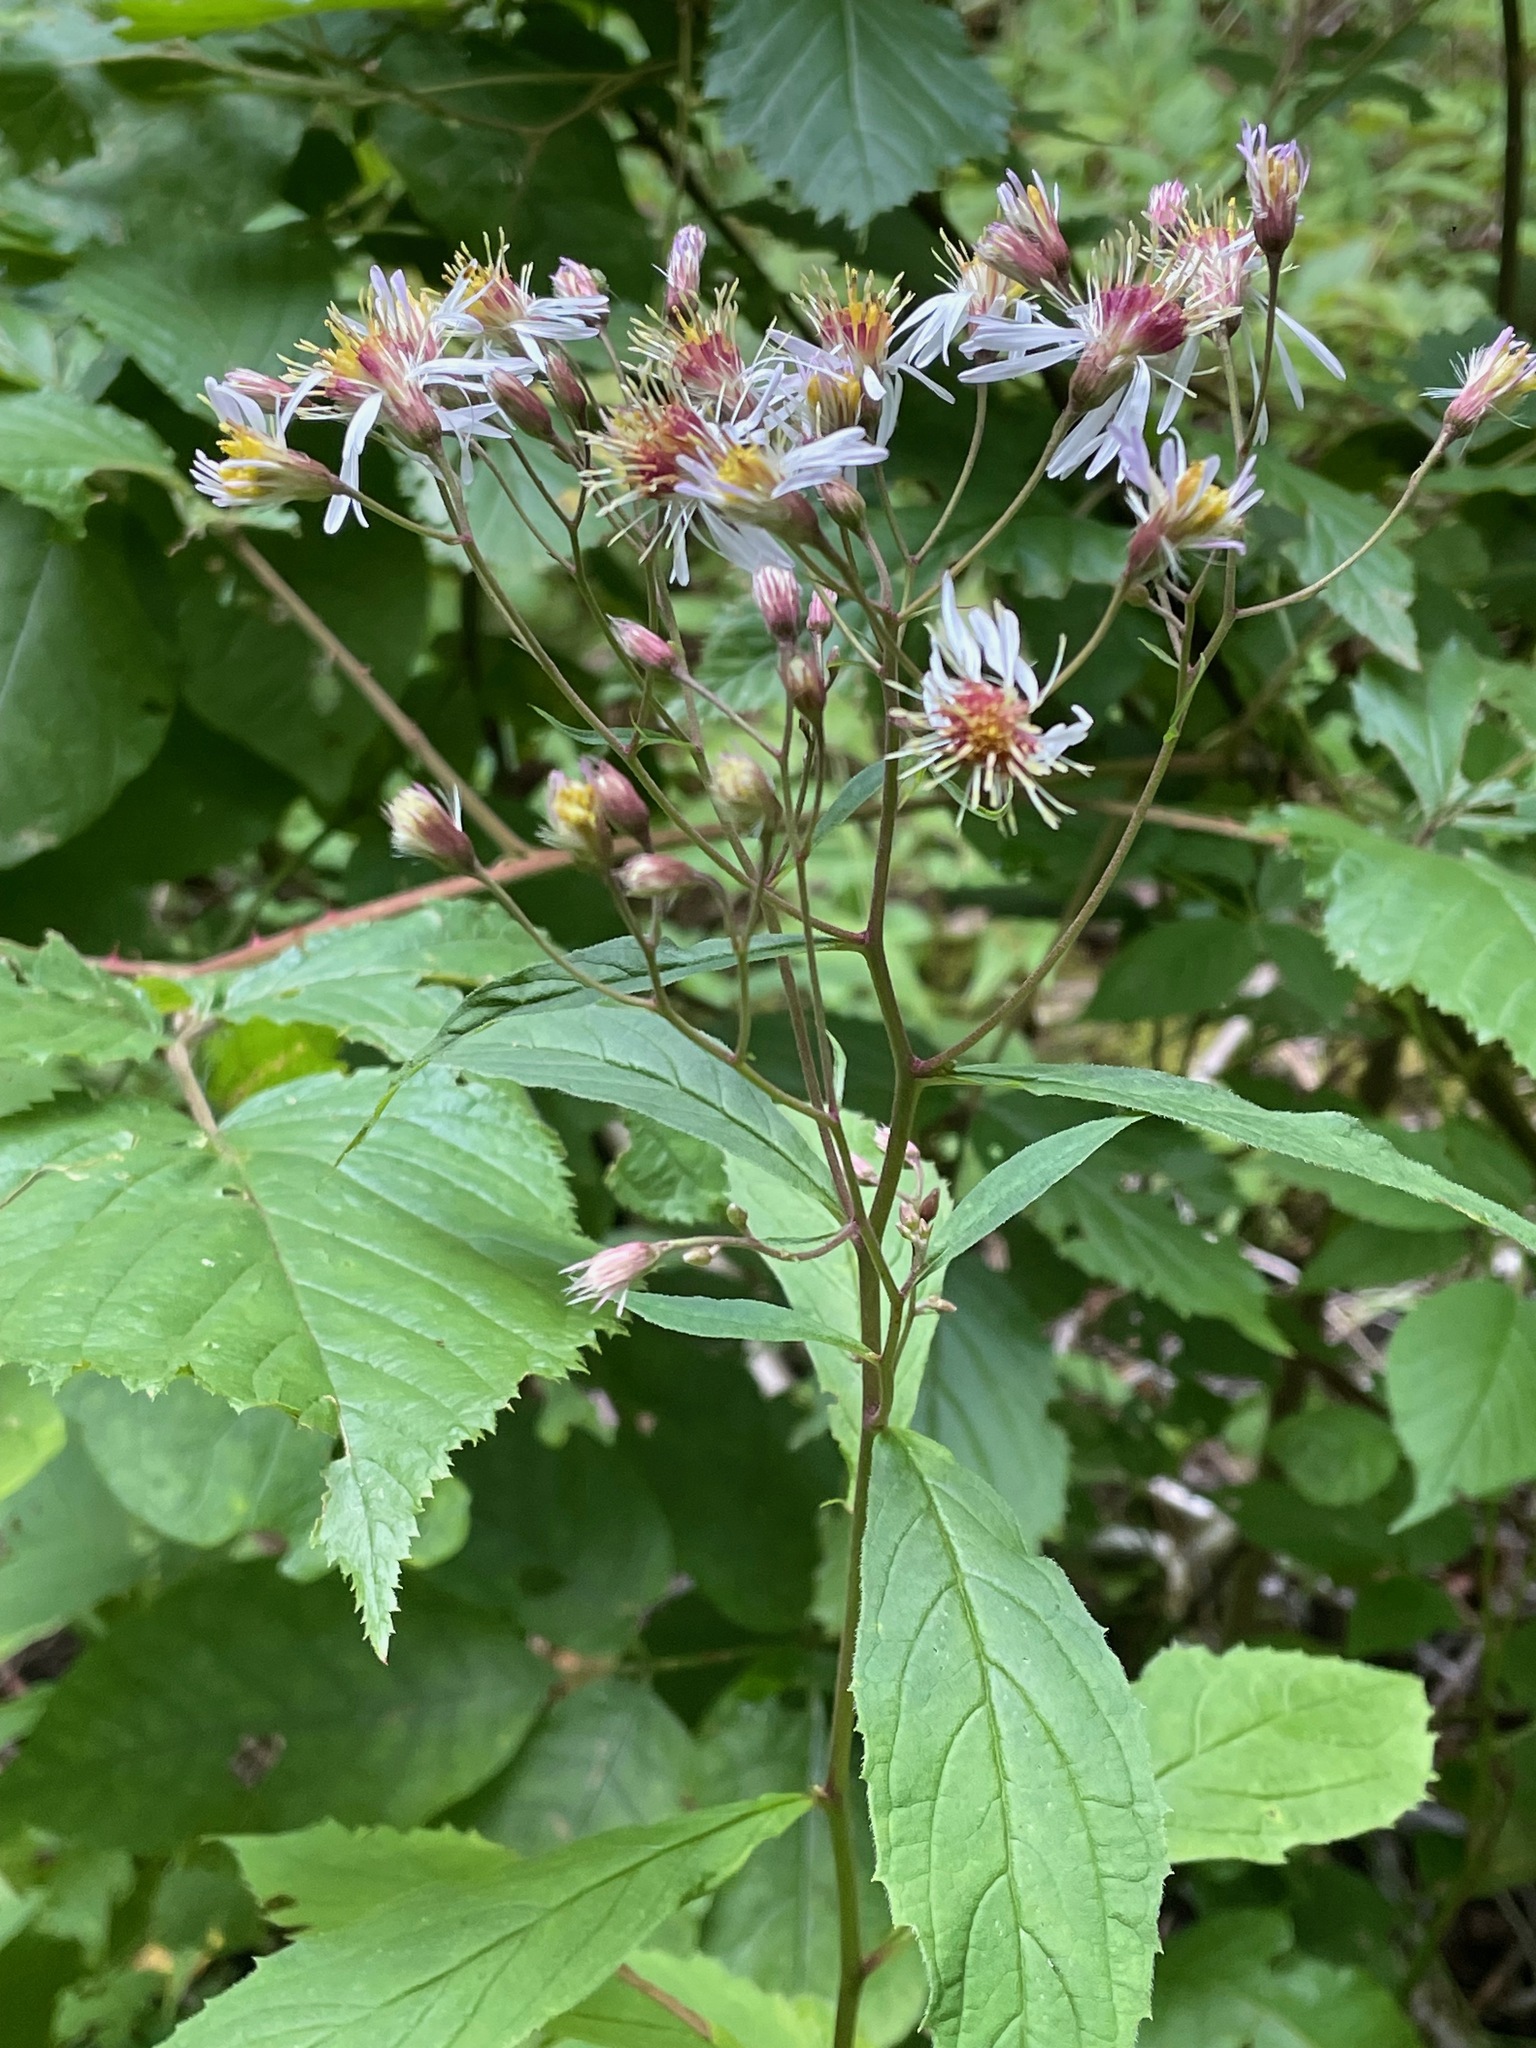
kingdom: Plantae
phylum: Tracheophyta
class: Magnoliopsida
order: Asterales
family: Asteraceae
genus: Oclemena
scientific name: Oclemena acuminata
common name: Mountain aster
